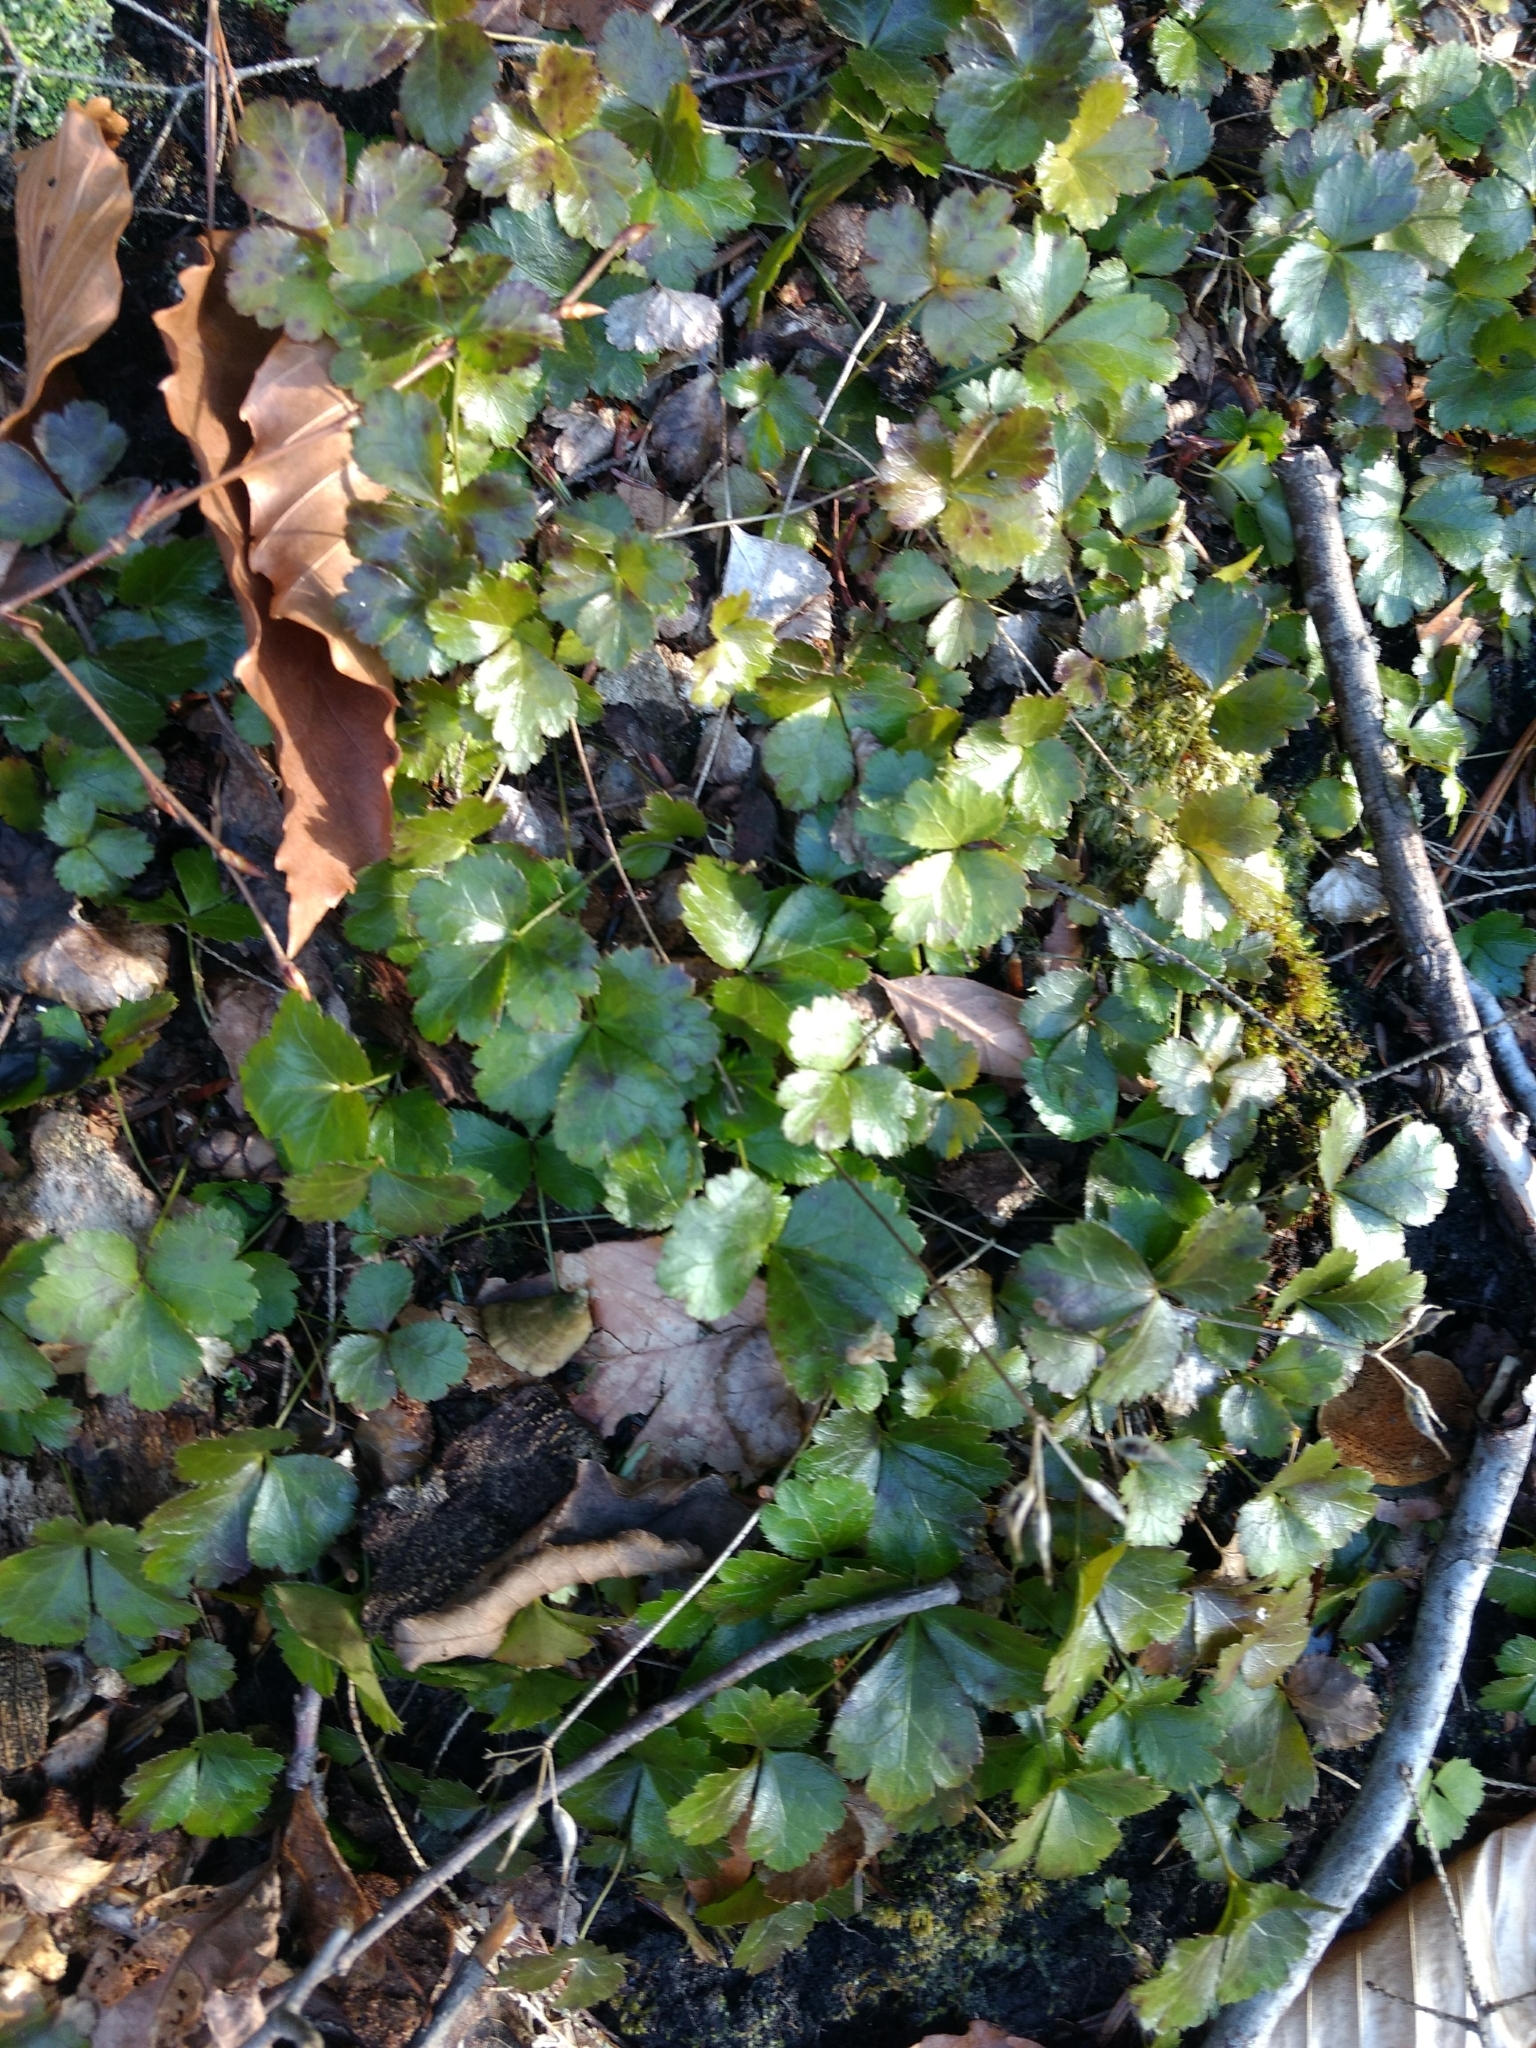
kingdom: Plantae
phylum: Tracheophyta
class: Magnoliopsida
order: Ranunculales
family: Ranunculaceae
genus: Coptis
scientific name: Coptis trifolia
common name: Canker-root
